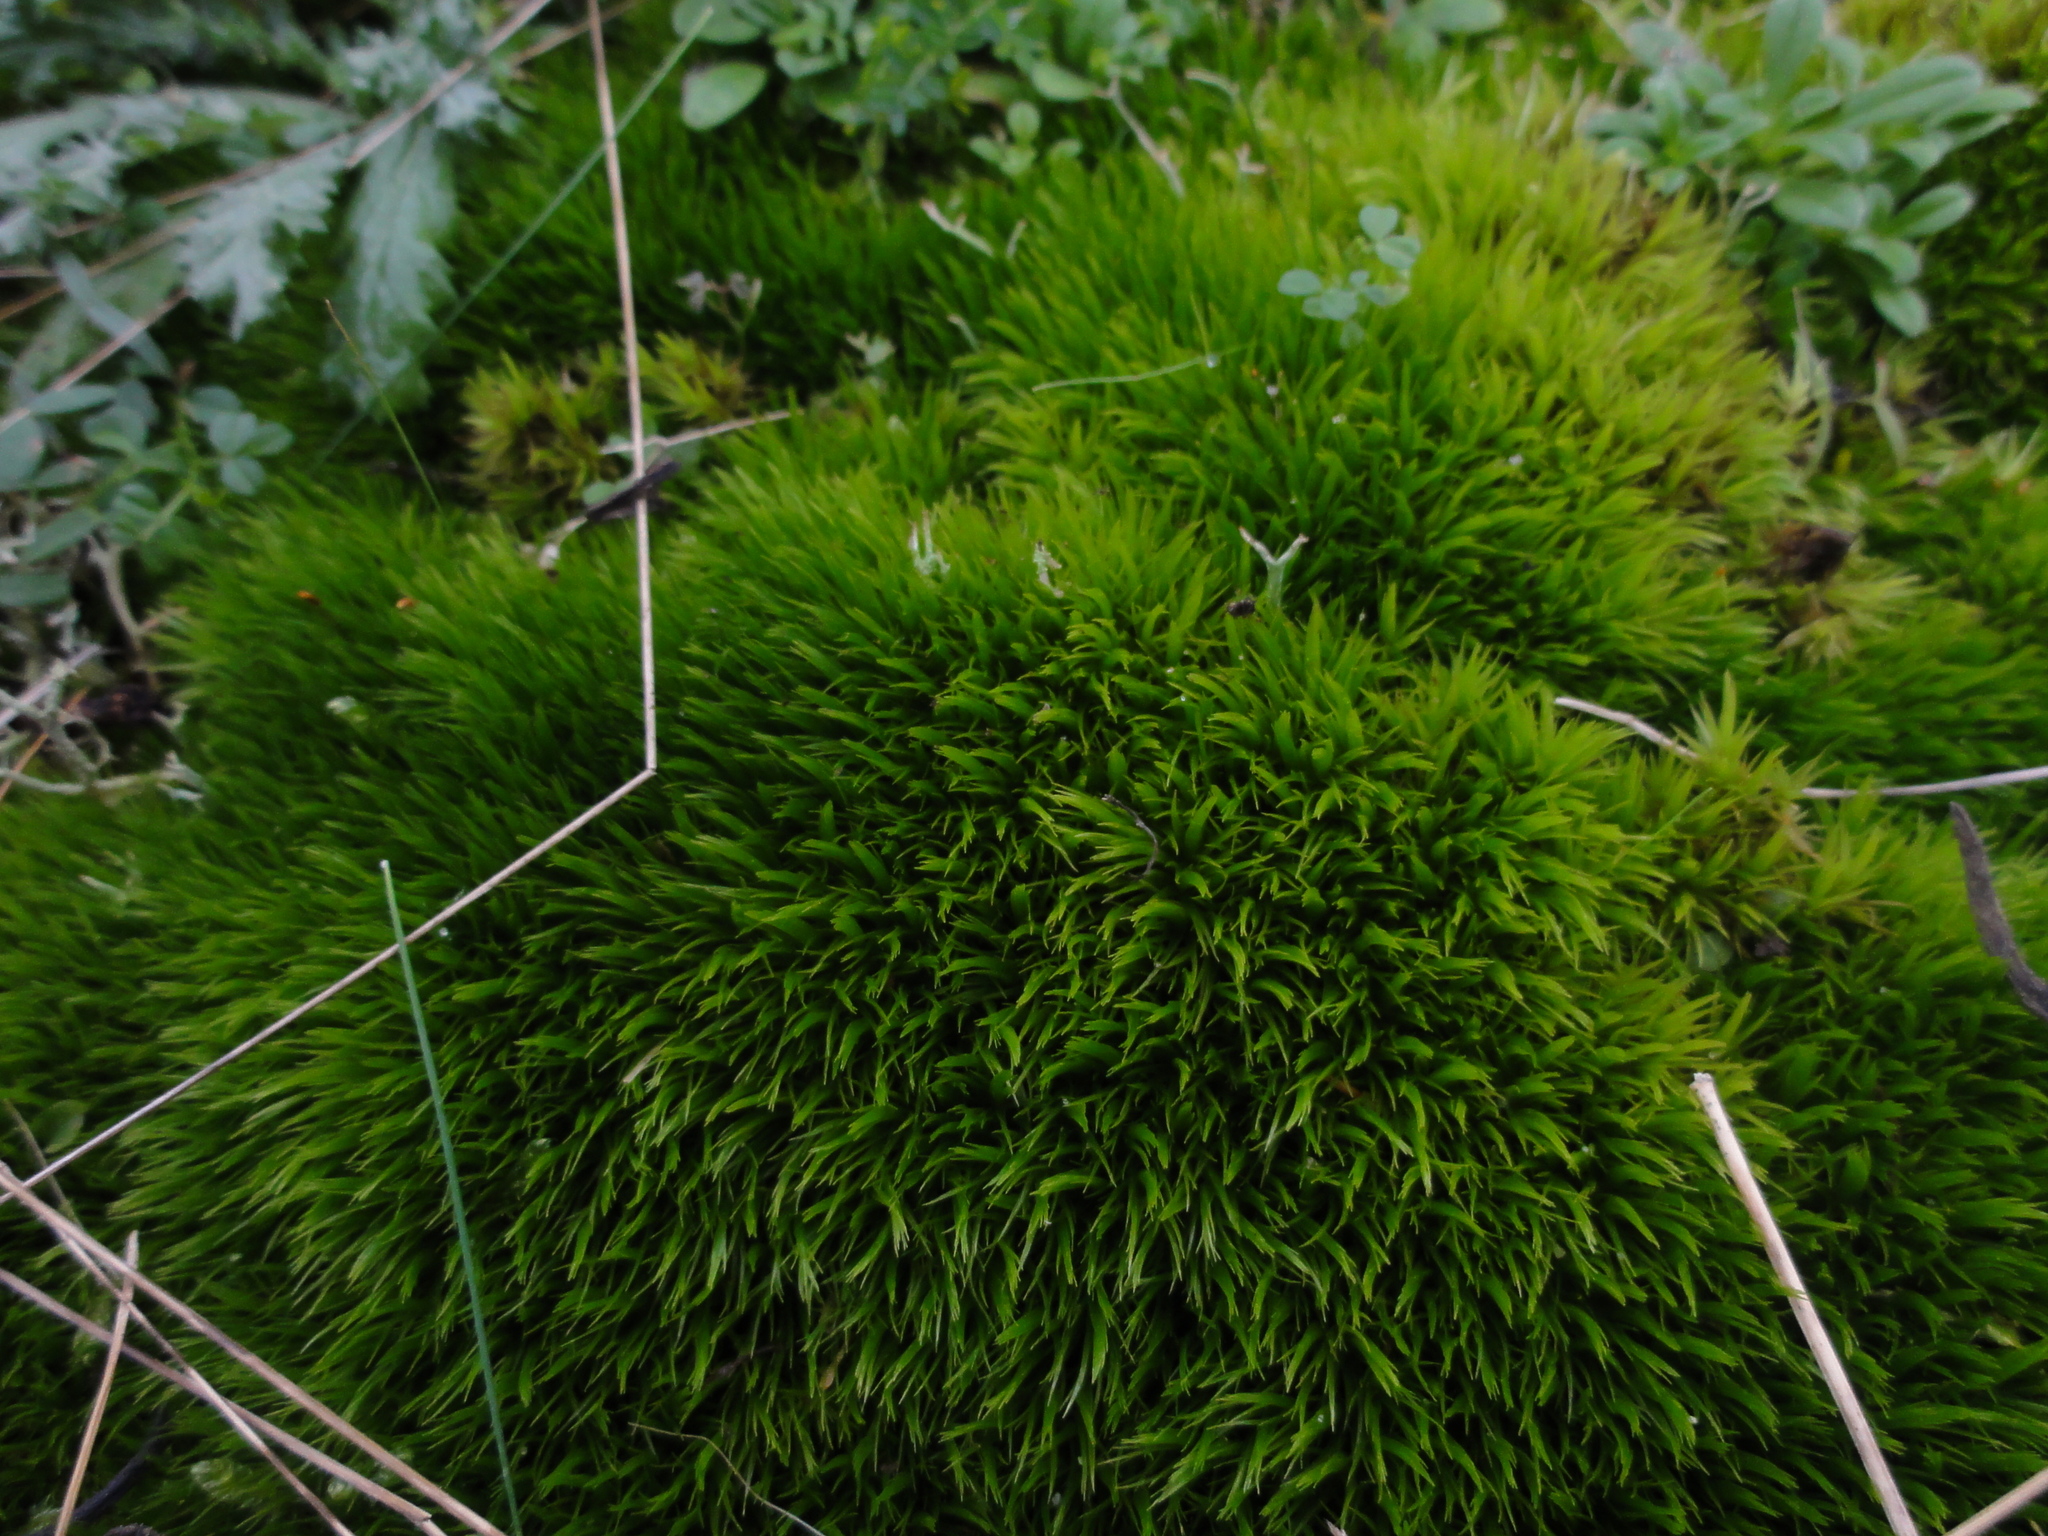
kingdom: Plantae
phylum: Bryophyta
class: Bryopsida
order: Dicranales
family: Dicranaceae
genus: Dicranum
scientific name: Dicranum scoparium
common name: Broom fork-moss
